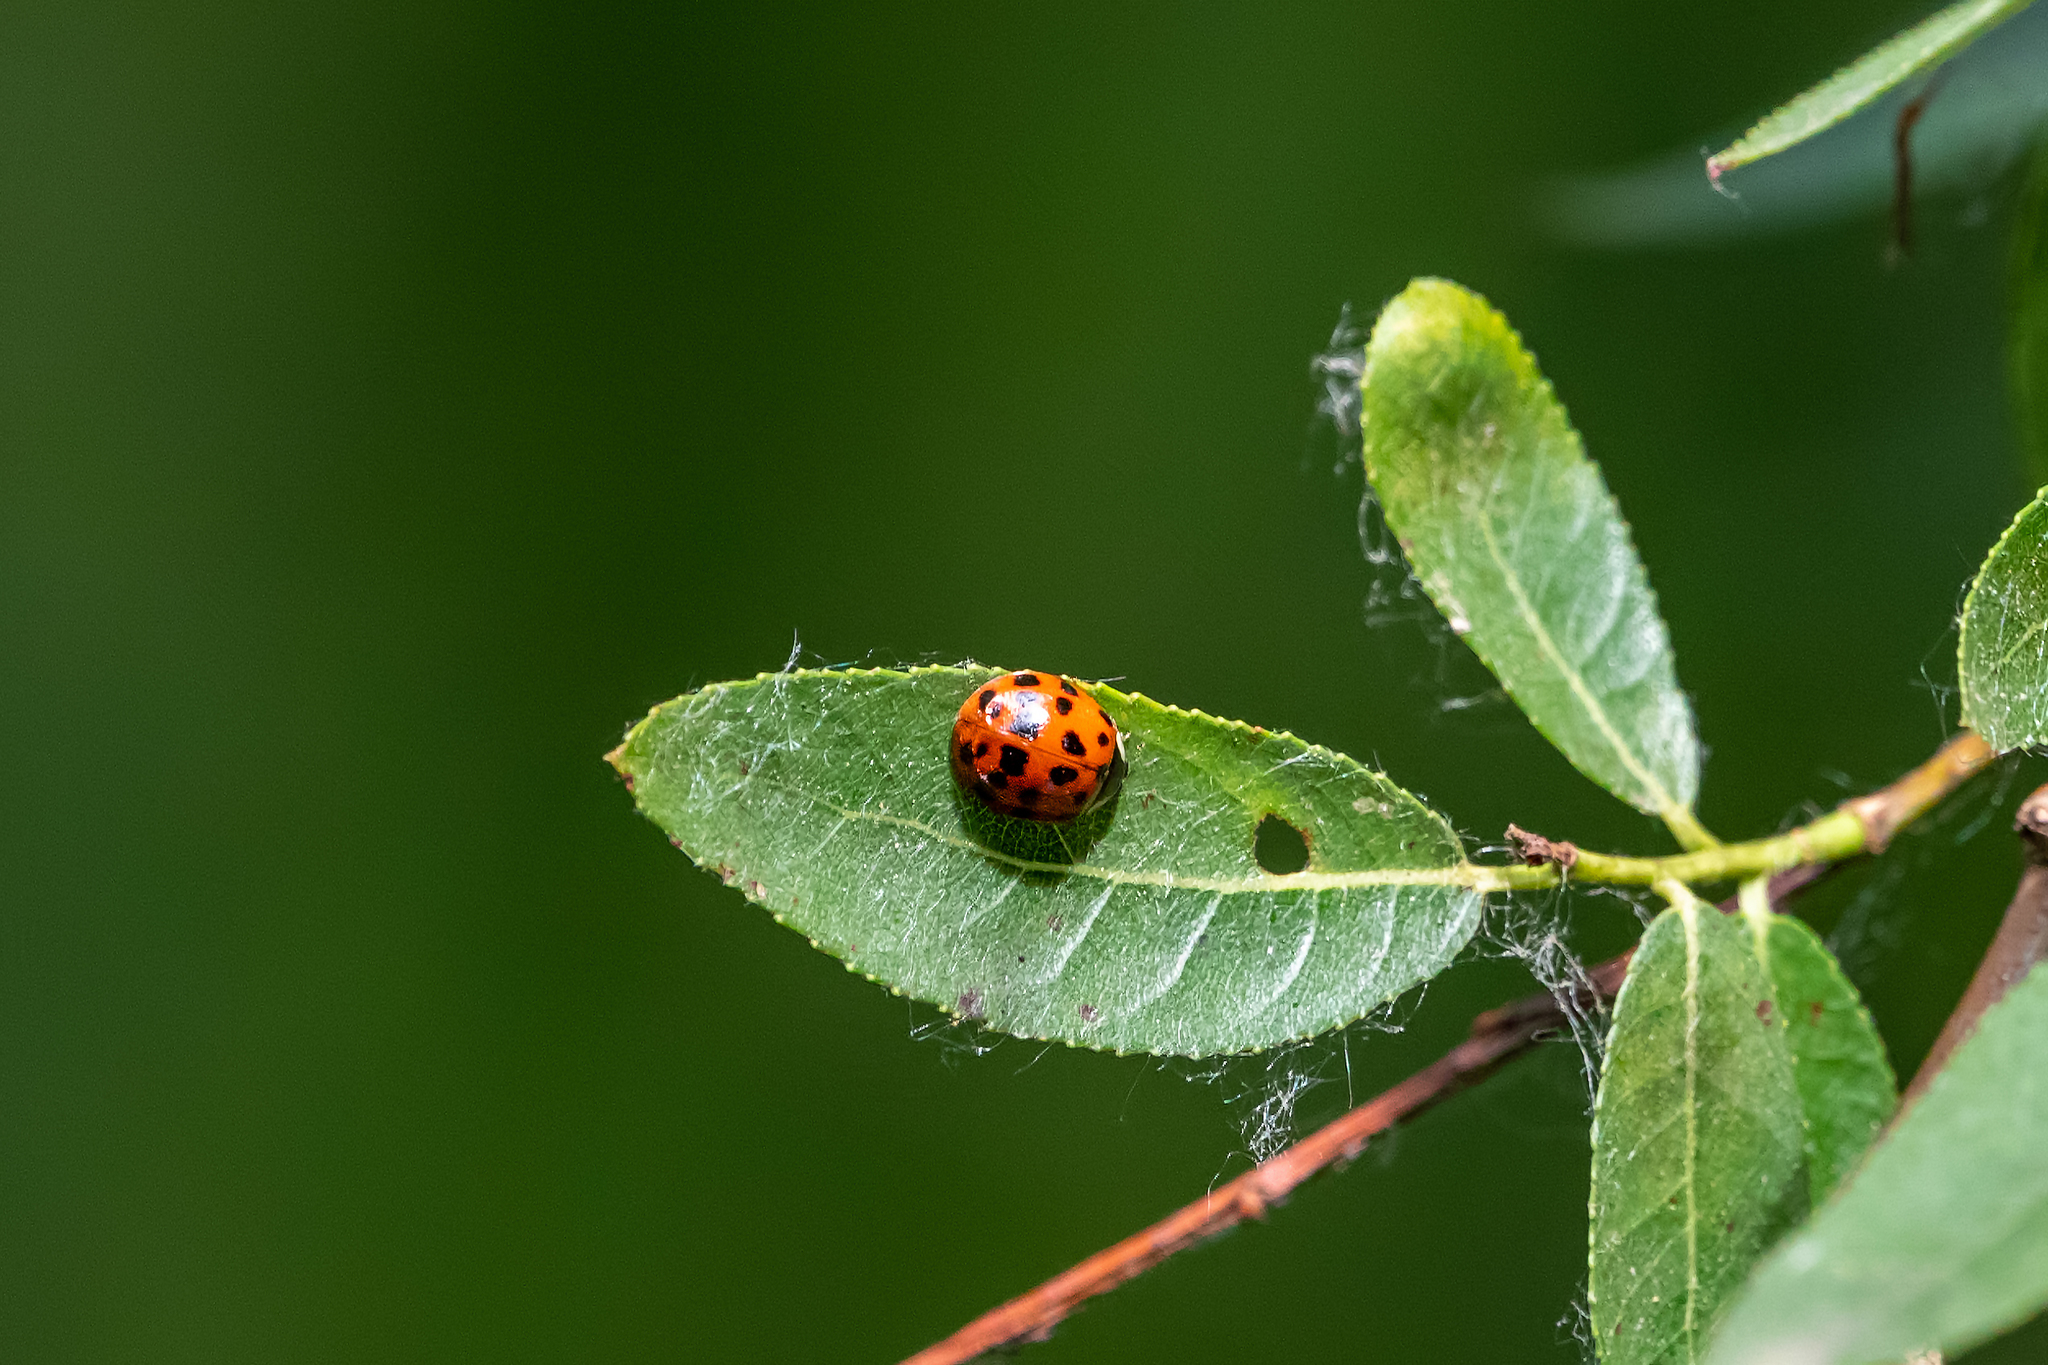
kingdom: Animalia
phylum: Arthropoda
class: Insecta
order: Coleoptera
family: Coccinellidae
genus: Harmonia
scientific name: Harmonia axyridis
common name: Harlequin ladybird
